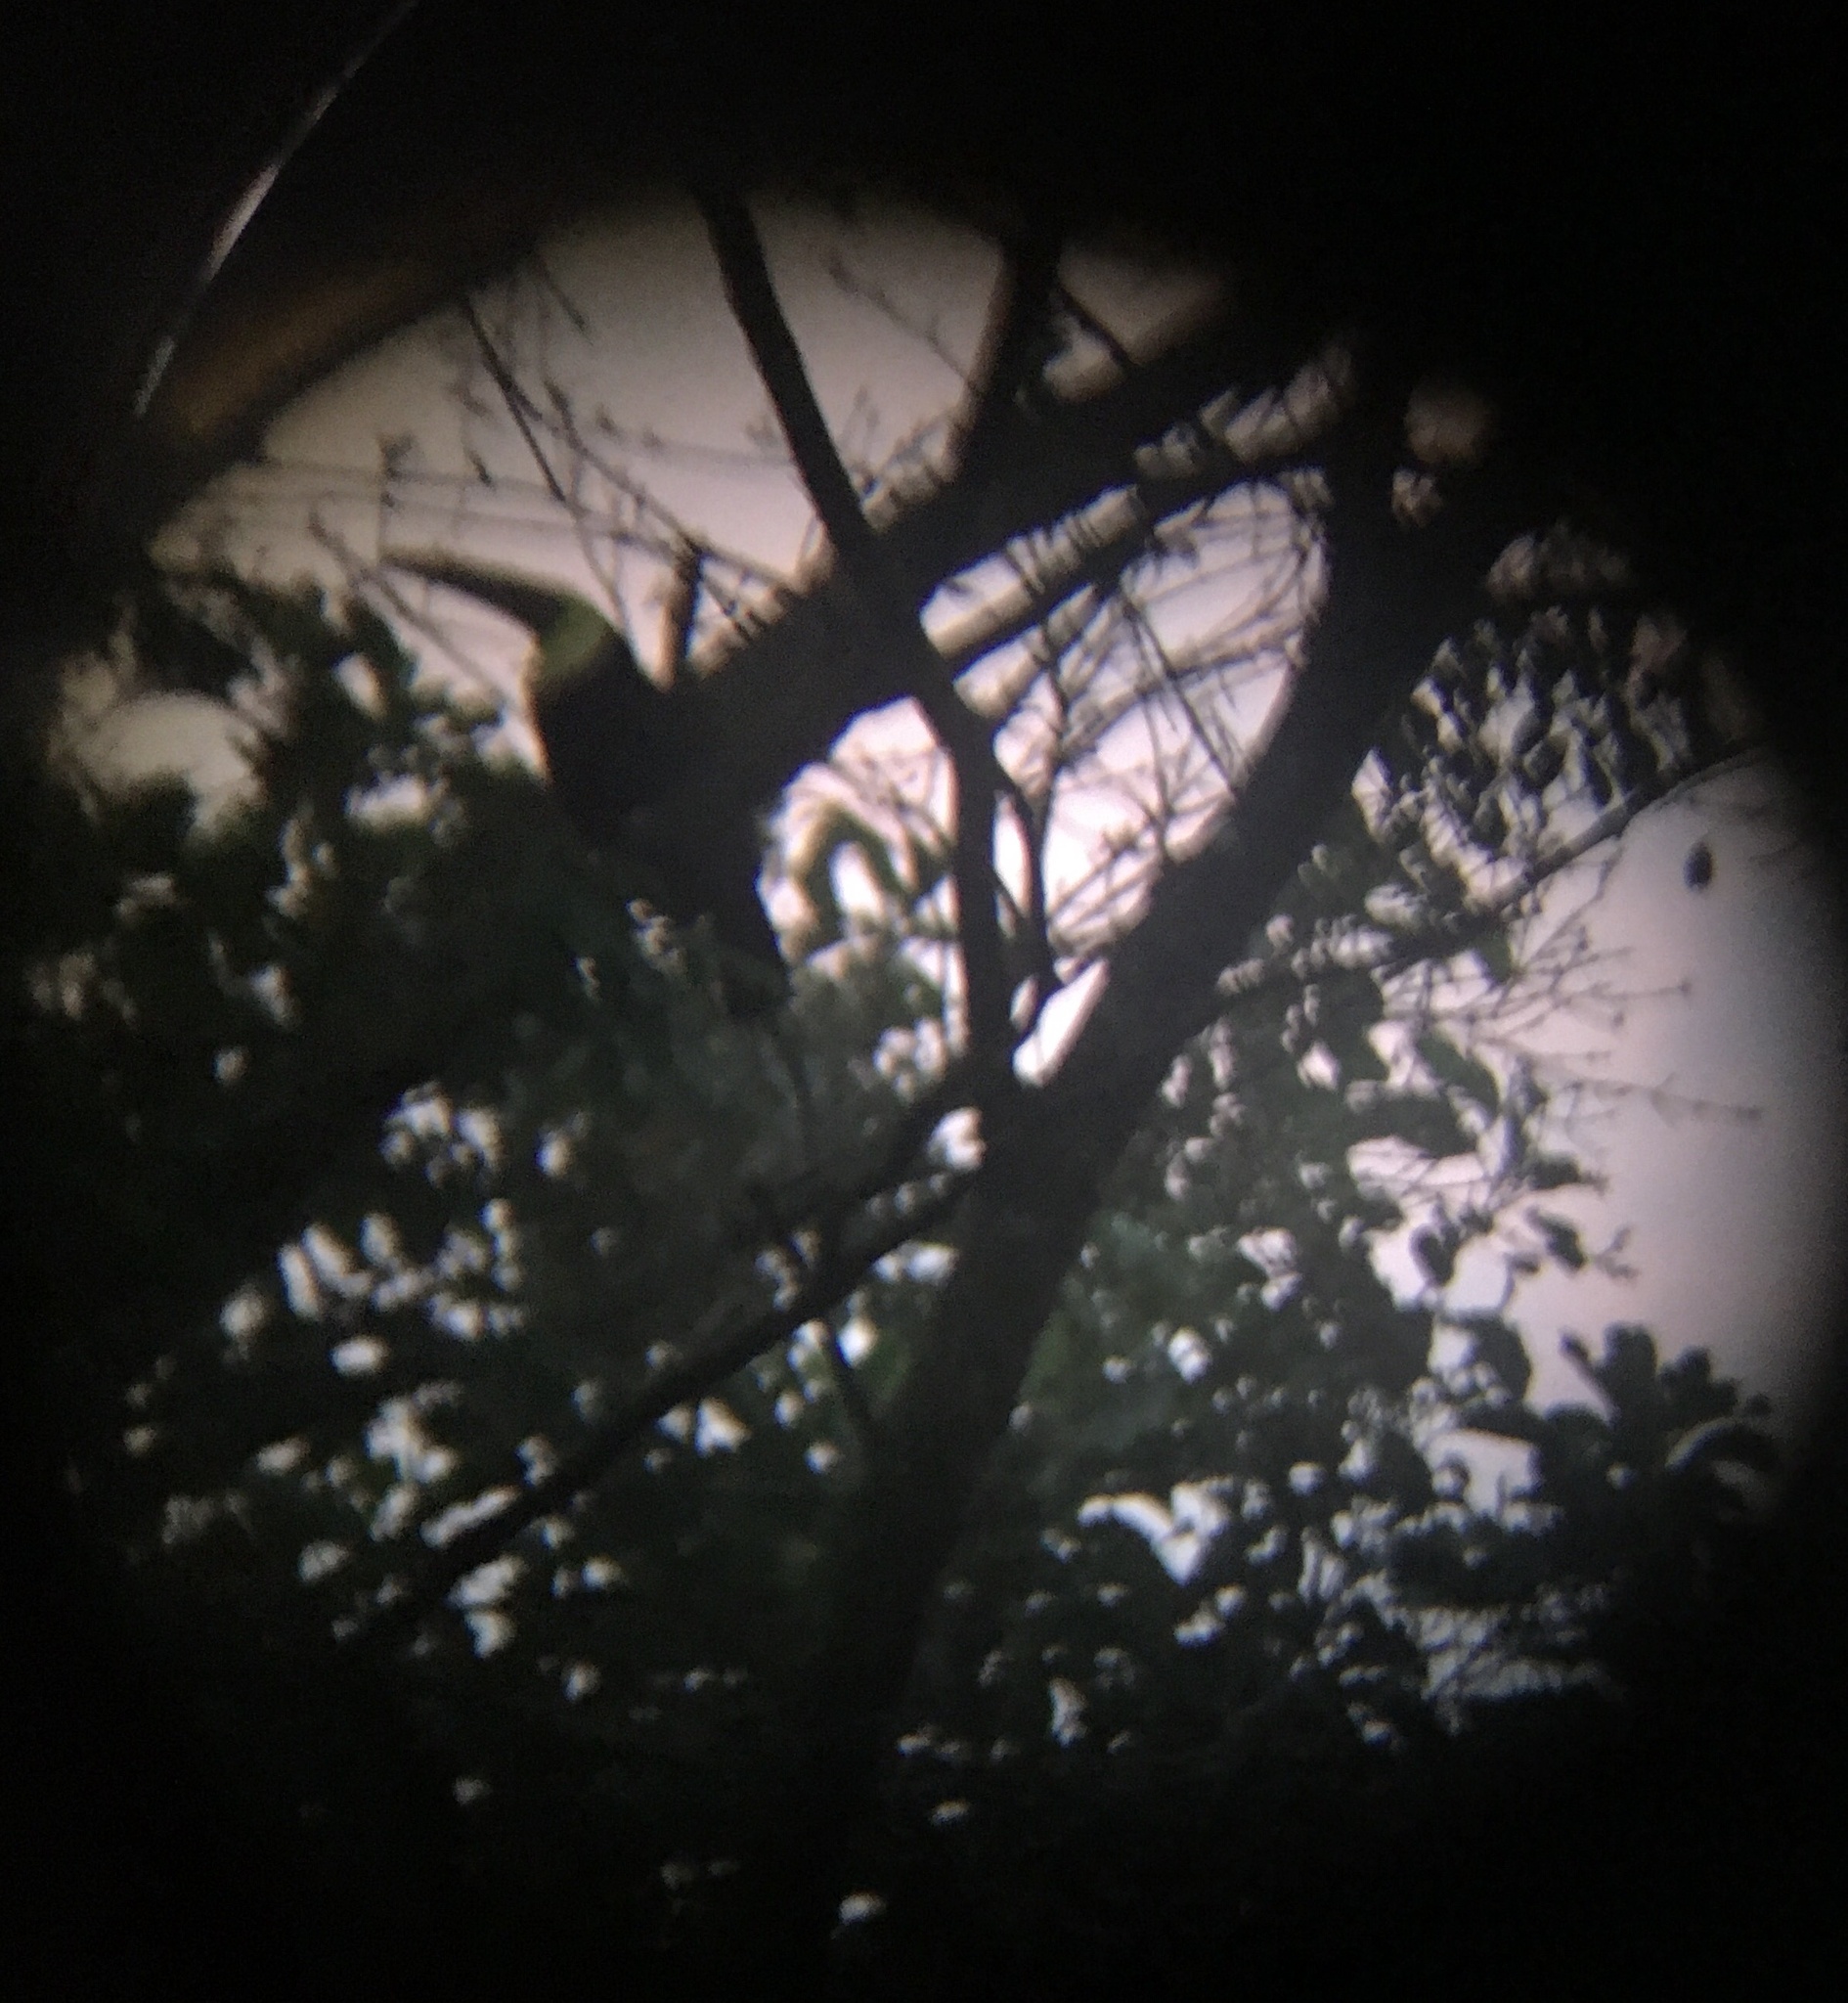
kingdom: Animalia
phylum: Chordata
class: Aves
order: Piciformes
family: Ramphastidae
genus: Ramphastos
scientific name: Ramphastos ambiguus
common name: Yellow-throated toucan
